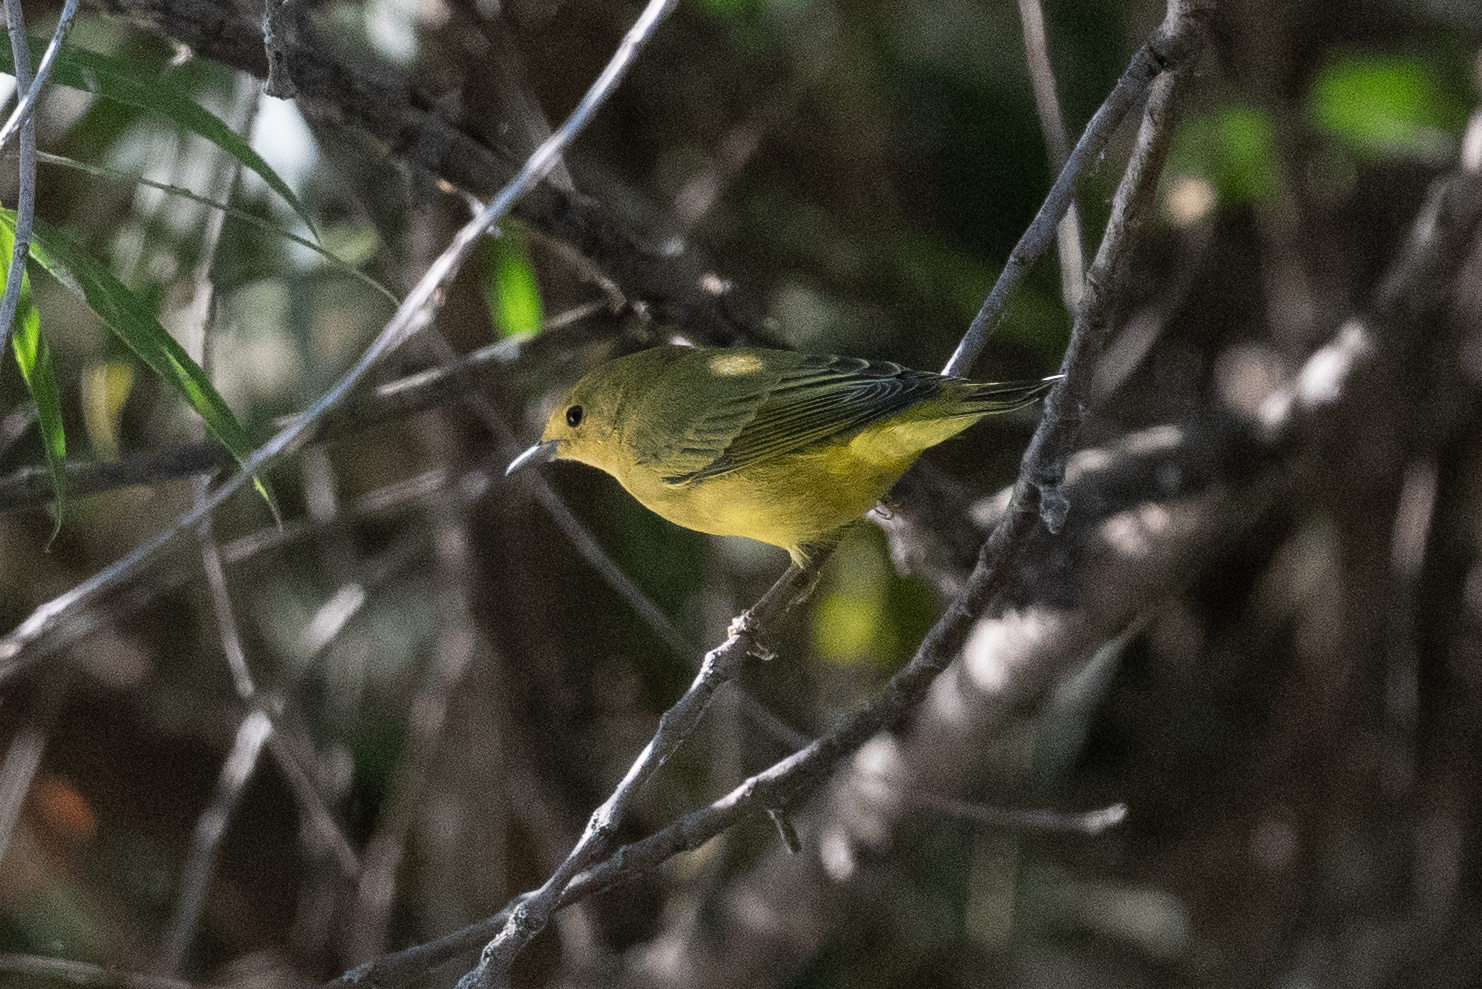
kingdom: Animalia
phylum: Chordata
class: Aves
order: Passeriformes
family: Parulidae
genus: Setophaga
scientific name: Setophaga petechia
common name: Yellow warbler
